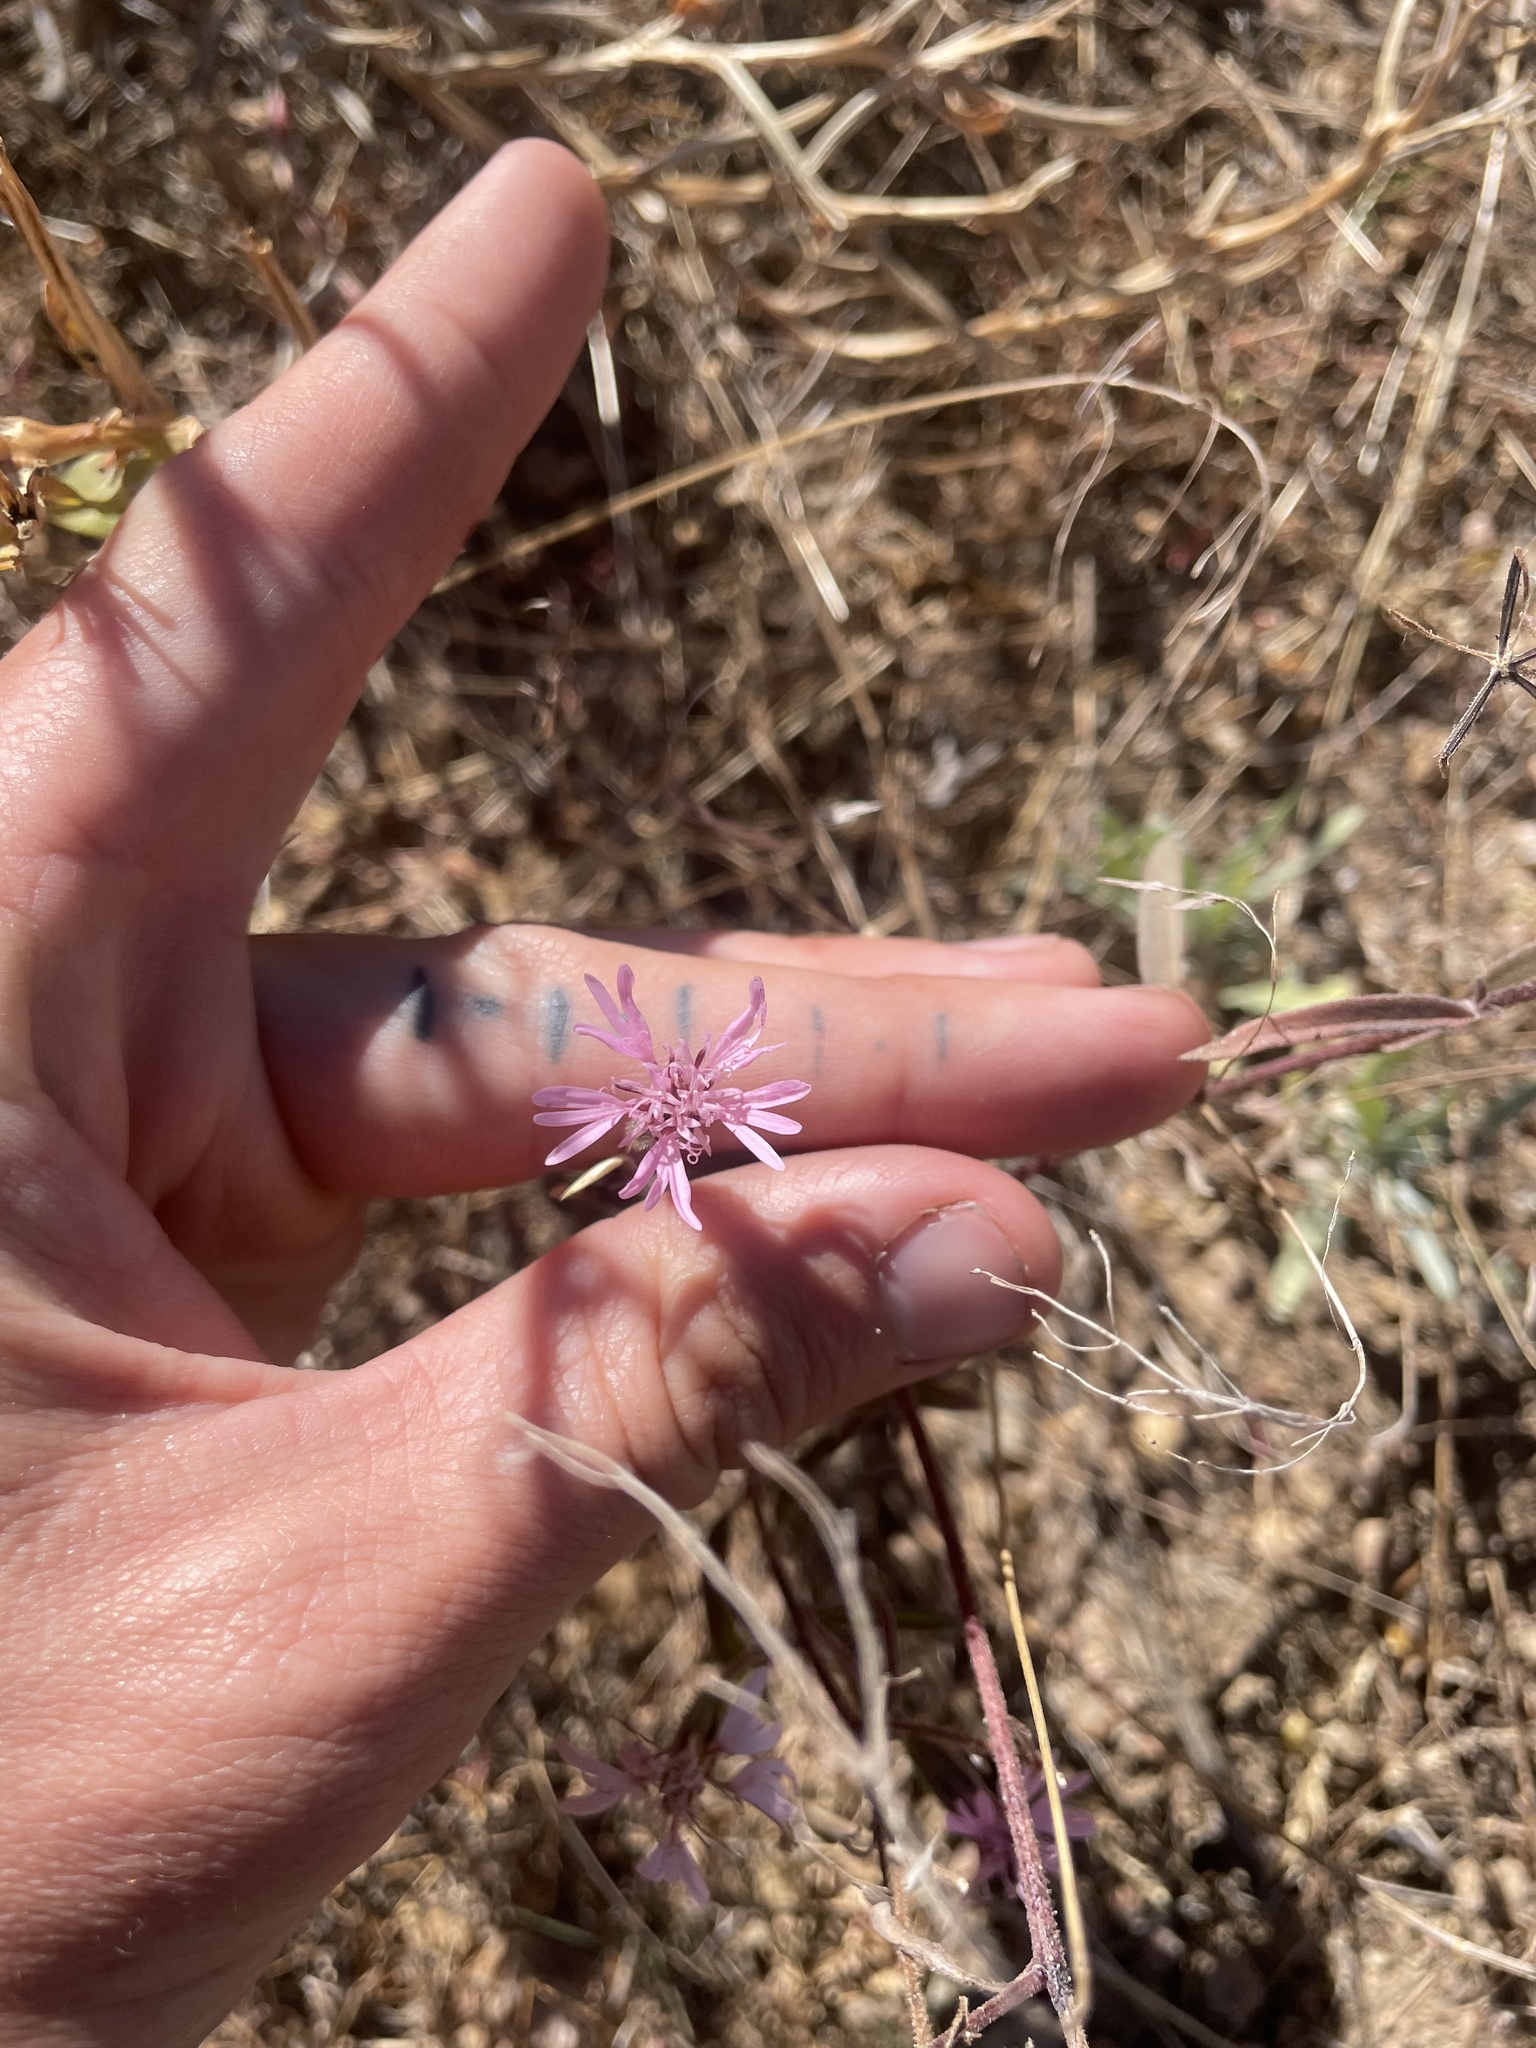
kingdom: Plantae
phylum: Tracheophyta
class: Magnoliopsida
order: Asterales
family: Asteraceae
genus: Palafoxia
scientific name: Palafoxia sphacelata
